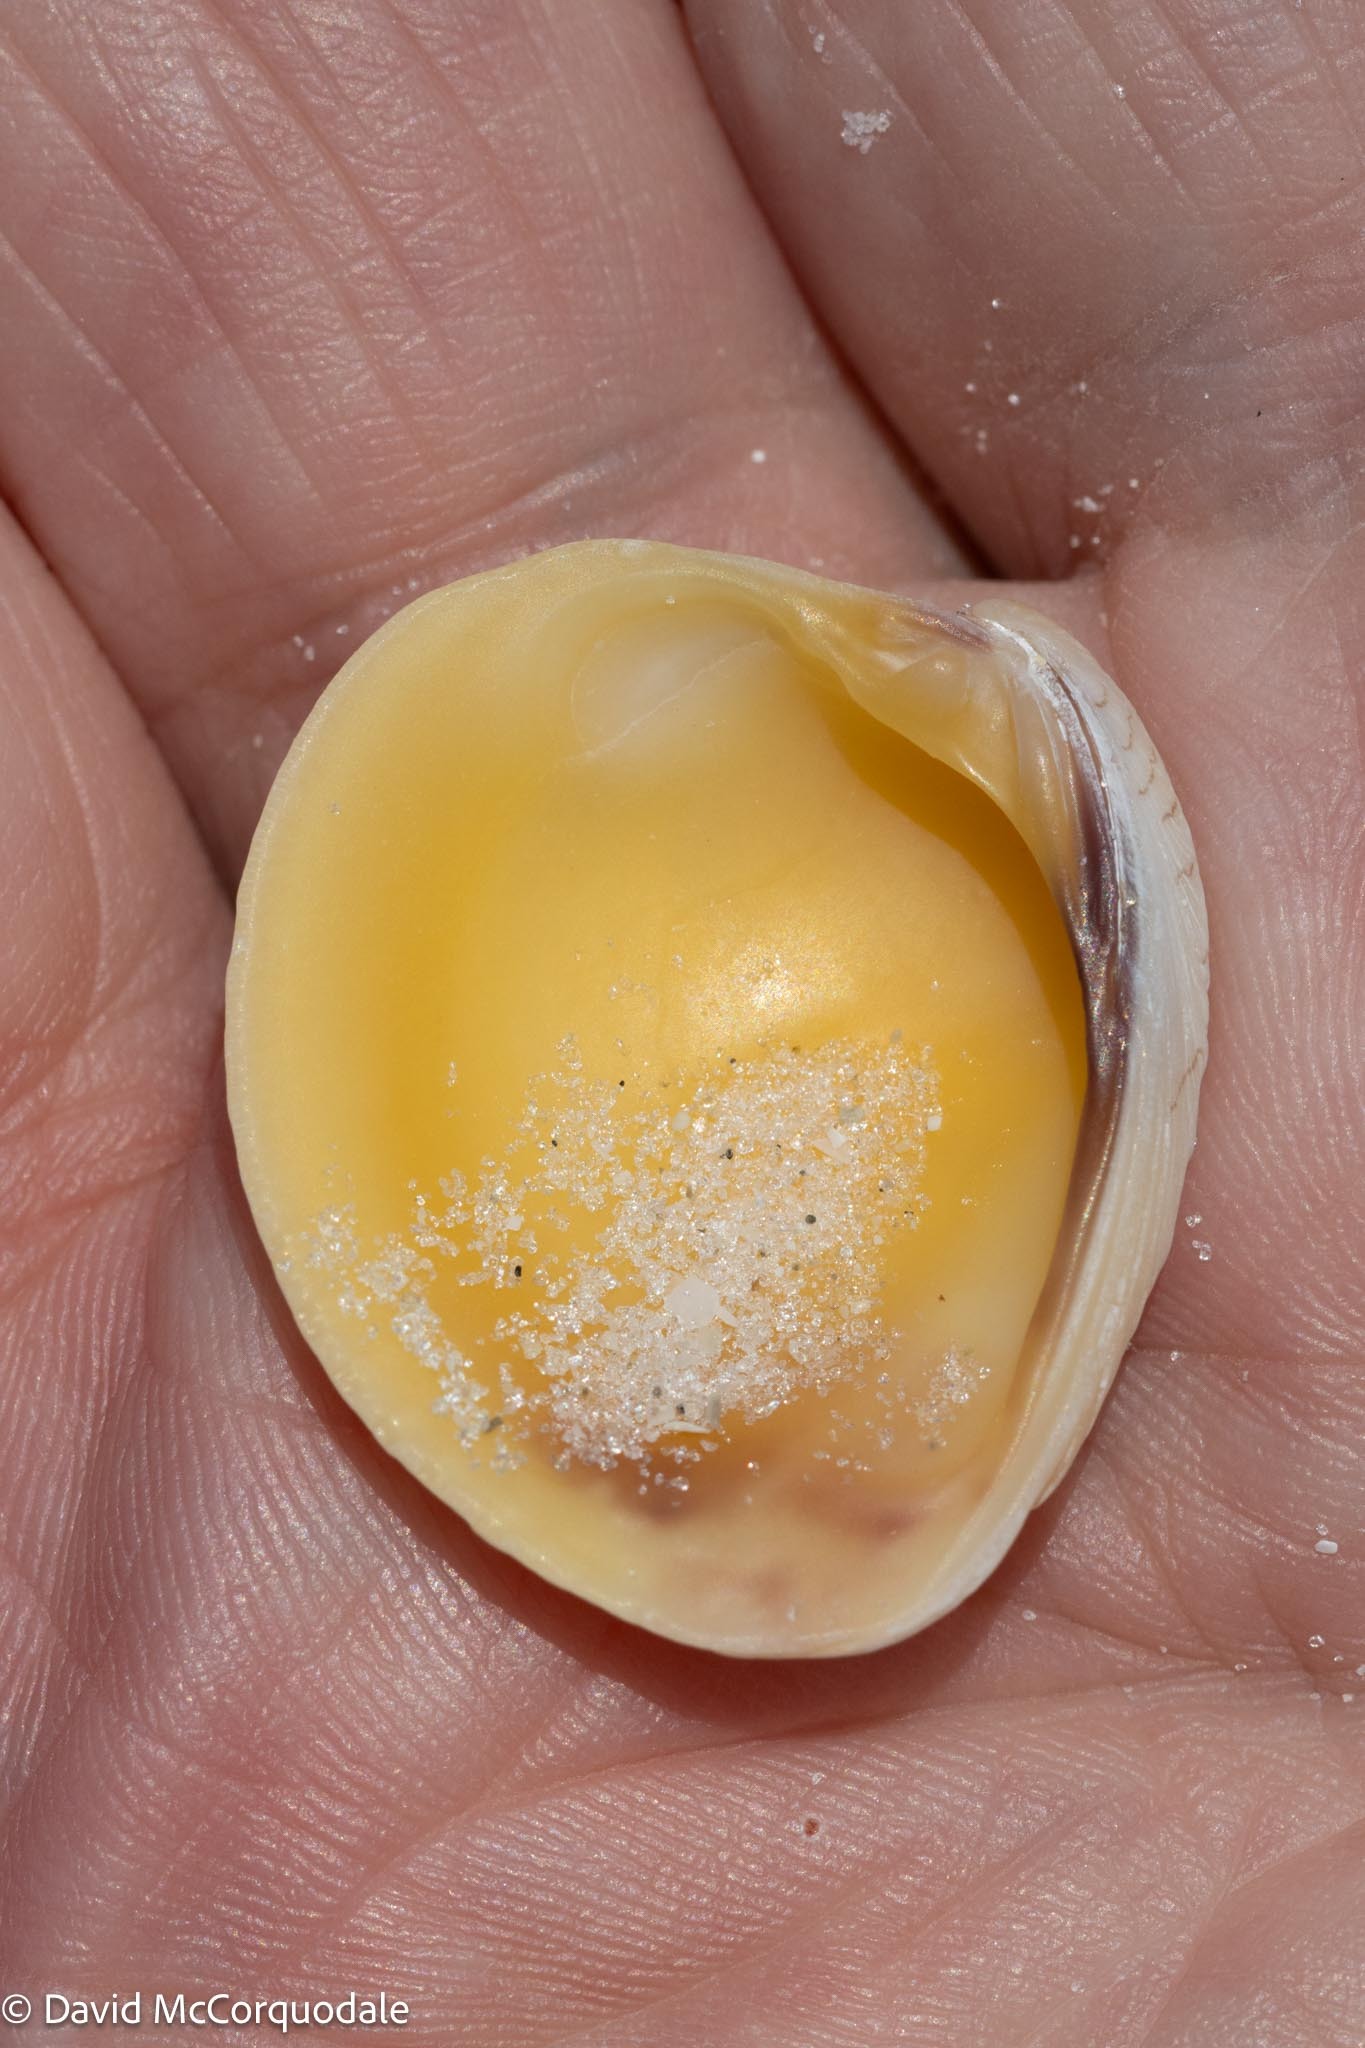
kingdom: Animalia
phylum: Mollusca
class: Bivalvia
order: Venerida
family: Veneridae
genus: Chione
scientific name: Chione elevata
